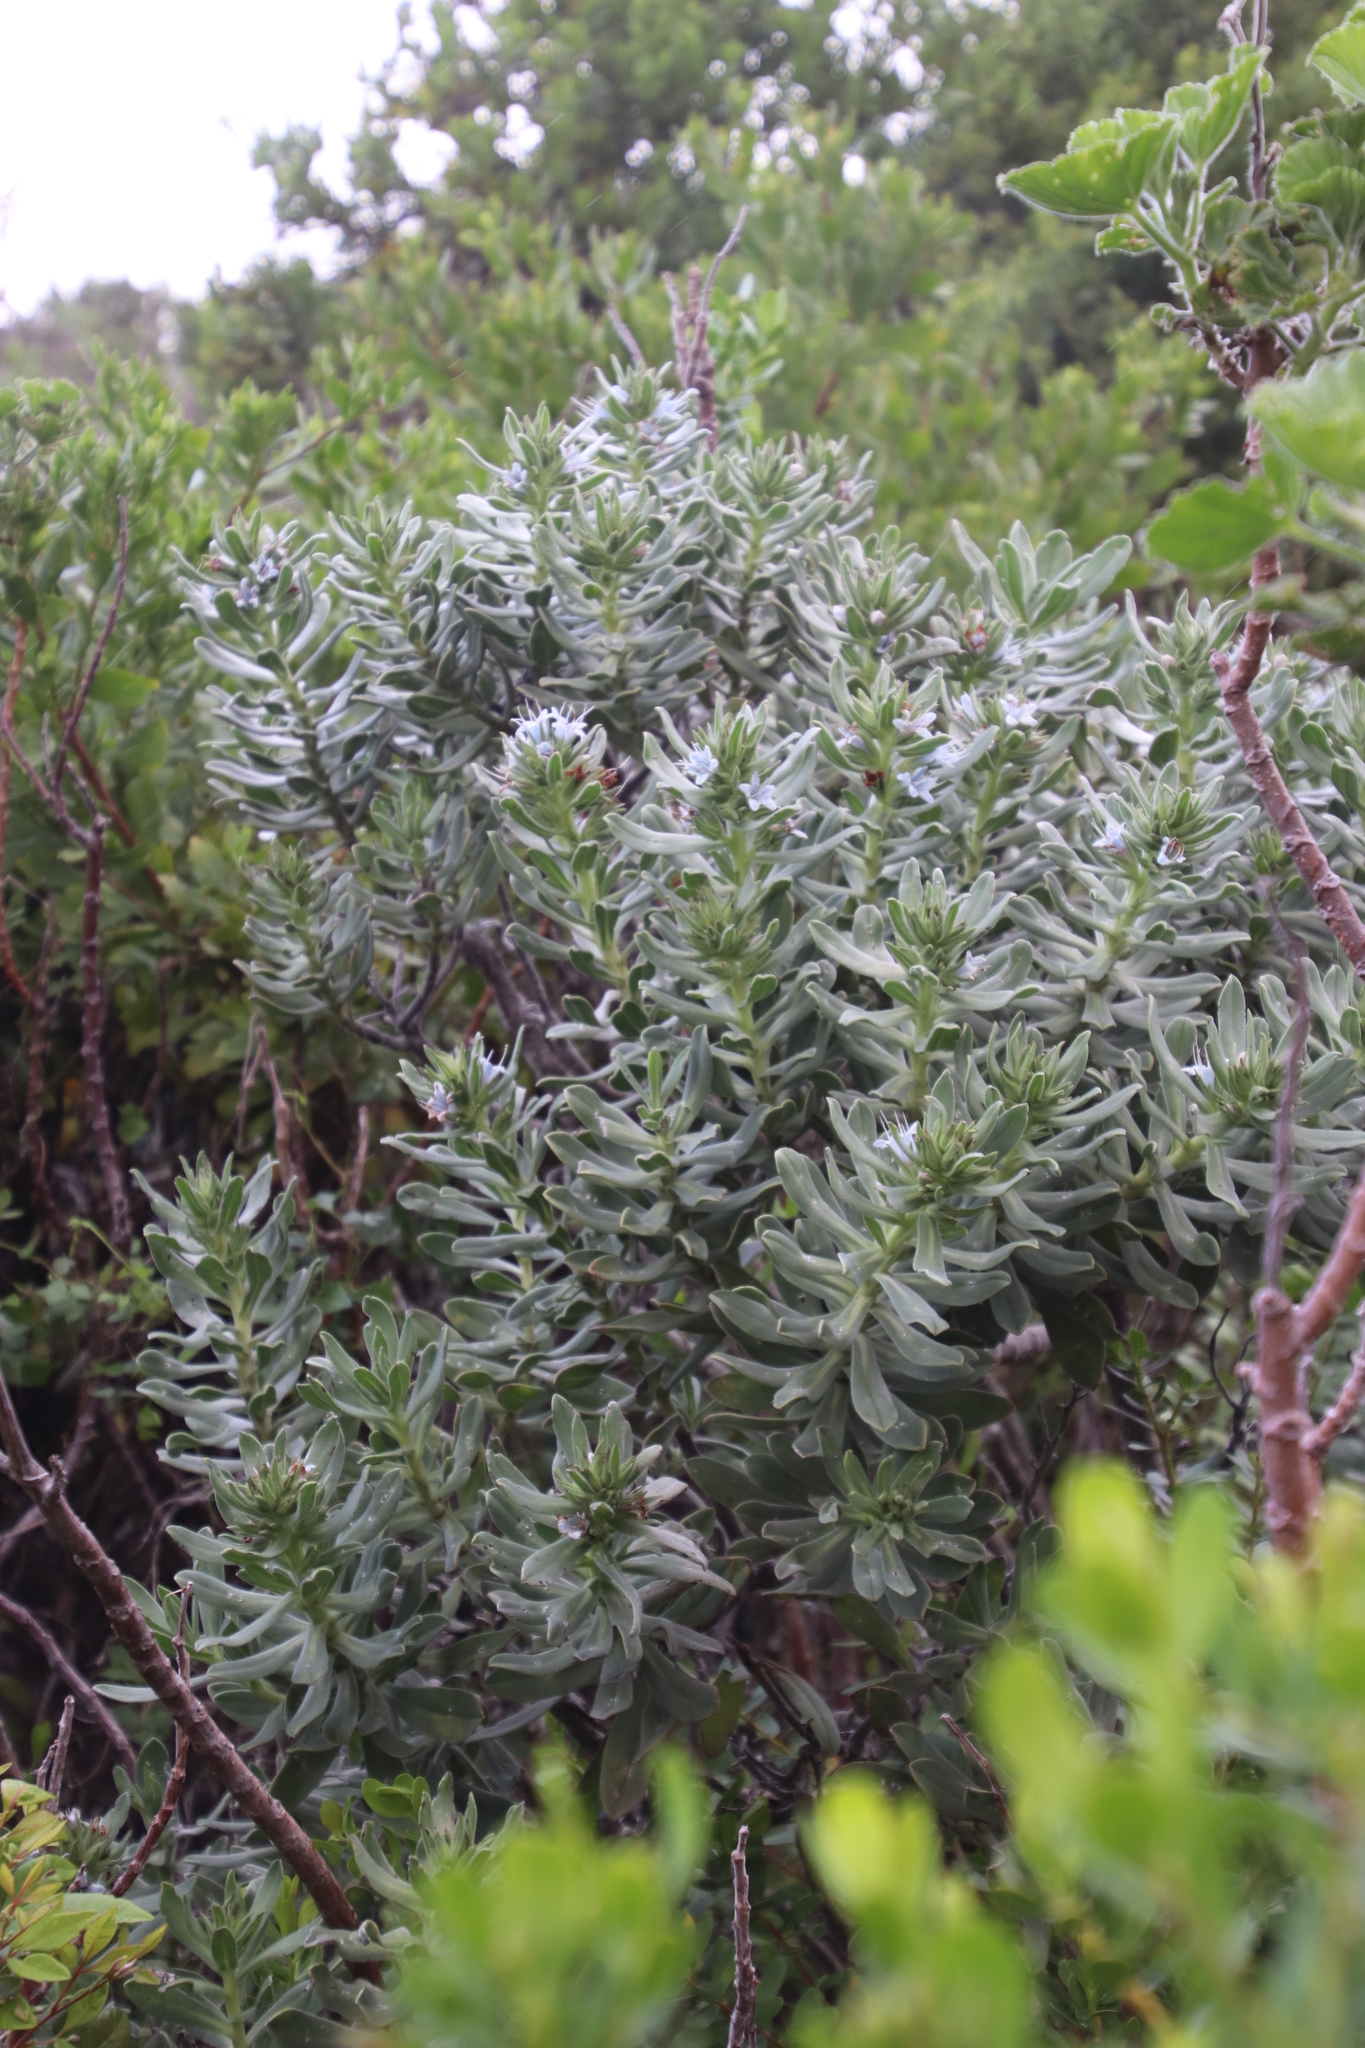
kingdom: Plantae
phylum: Tracheophyta
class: Magnoliopsida
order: Boraginales
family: Boraginaceae
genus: Lobostemon
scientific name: Lobostemon montanus
